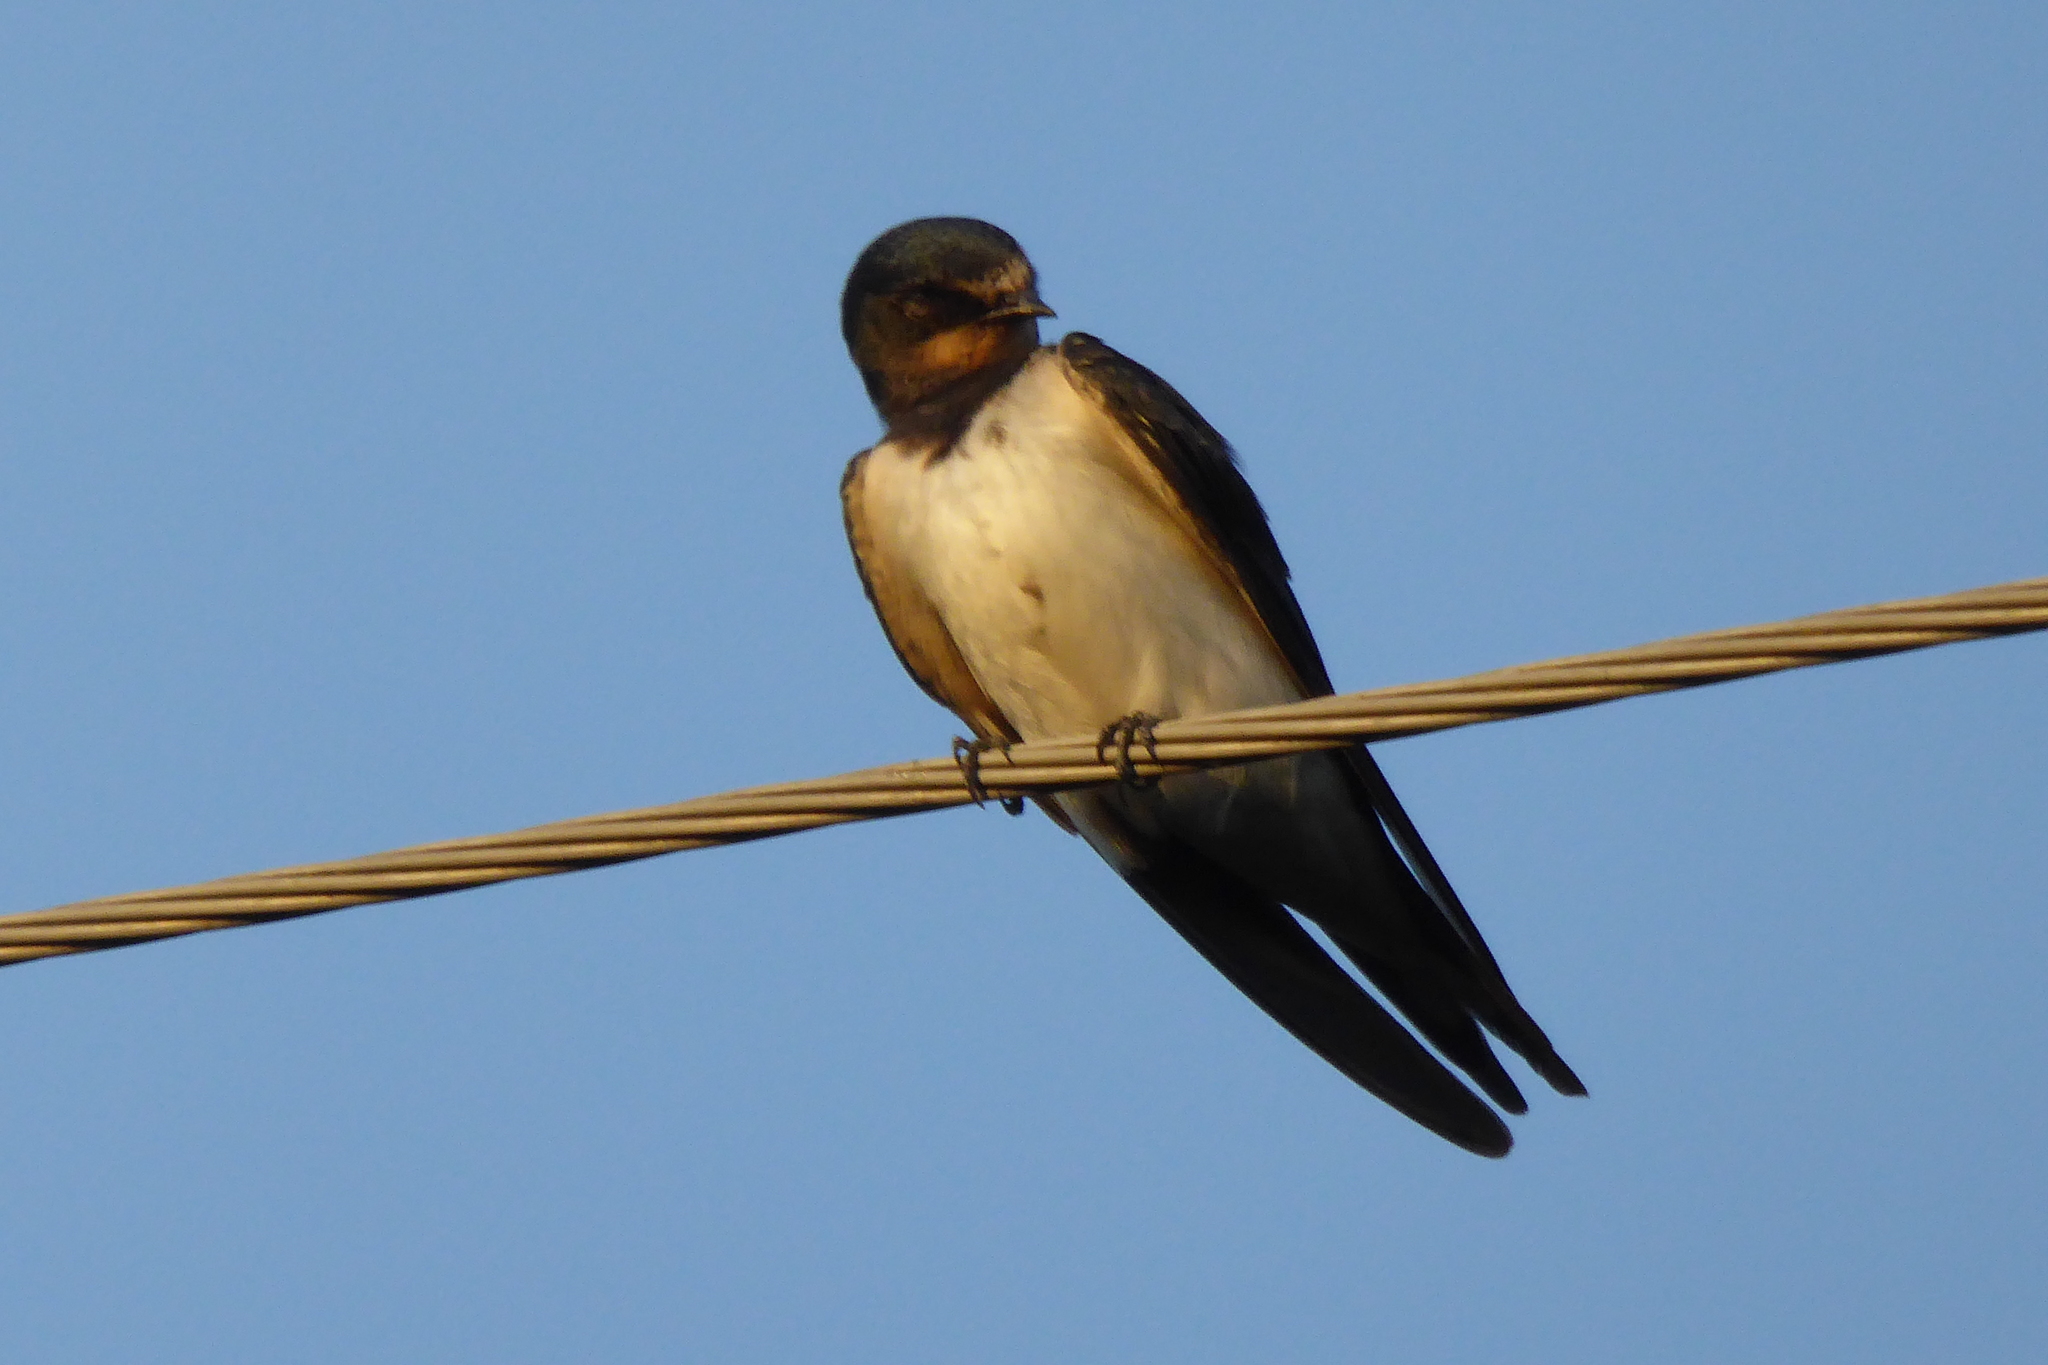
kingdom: Animalia
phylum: Chordata
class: Aves
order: Passeriformes
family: Hirundinidae
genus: Hirundo
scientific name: Hirundo rustica
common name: Barn swallow
